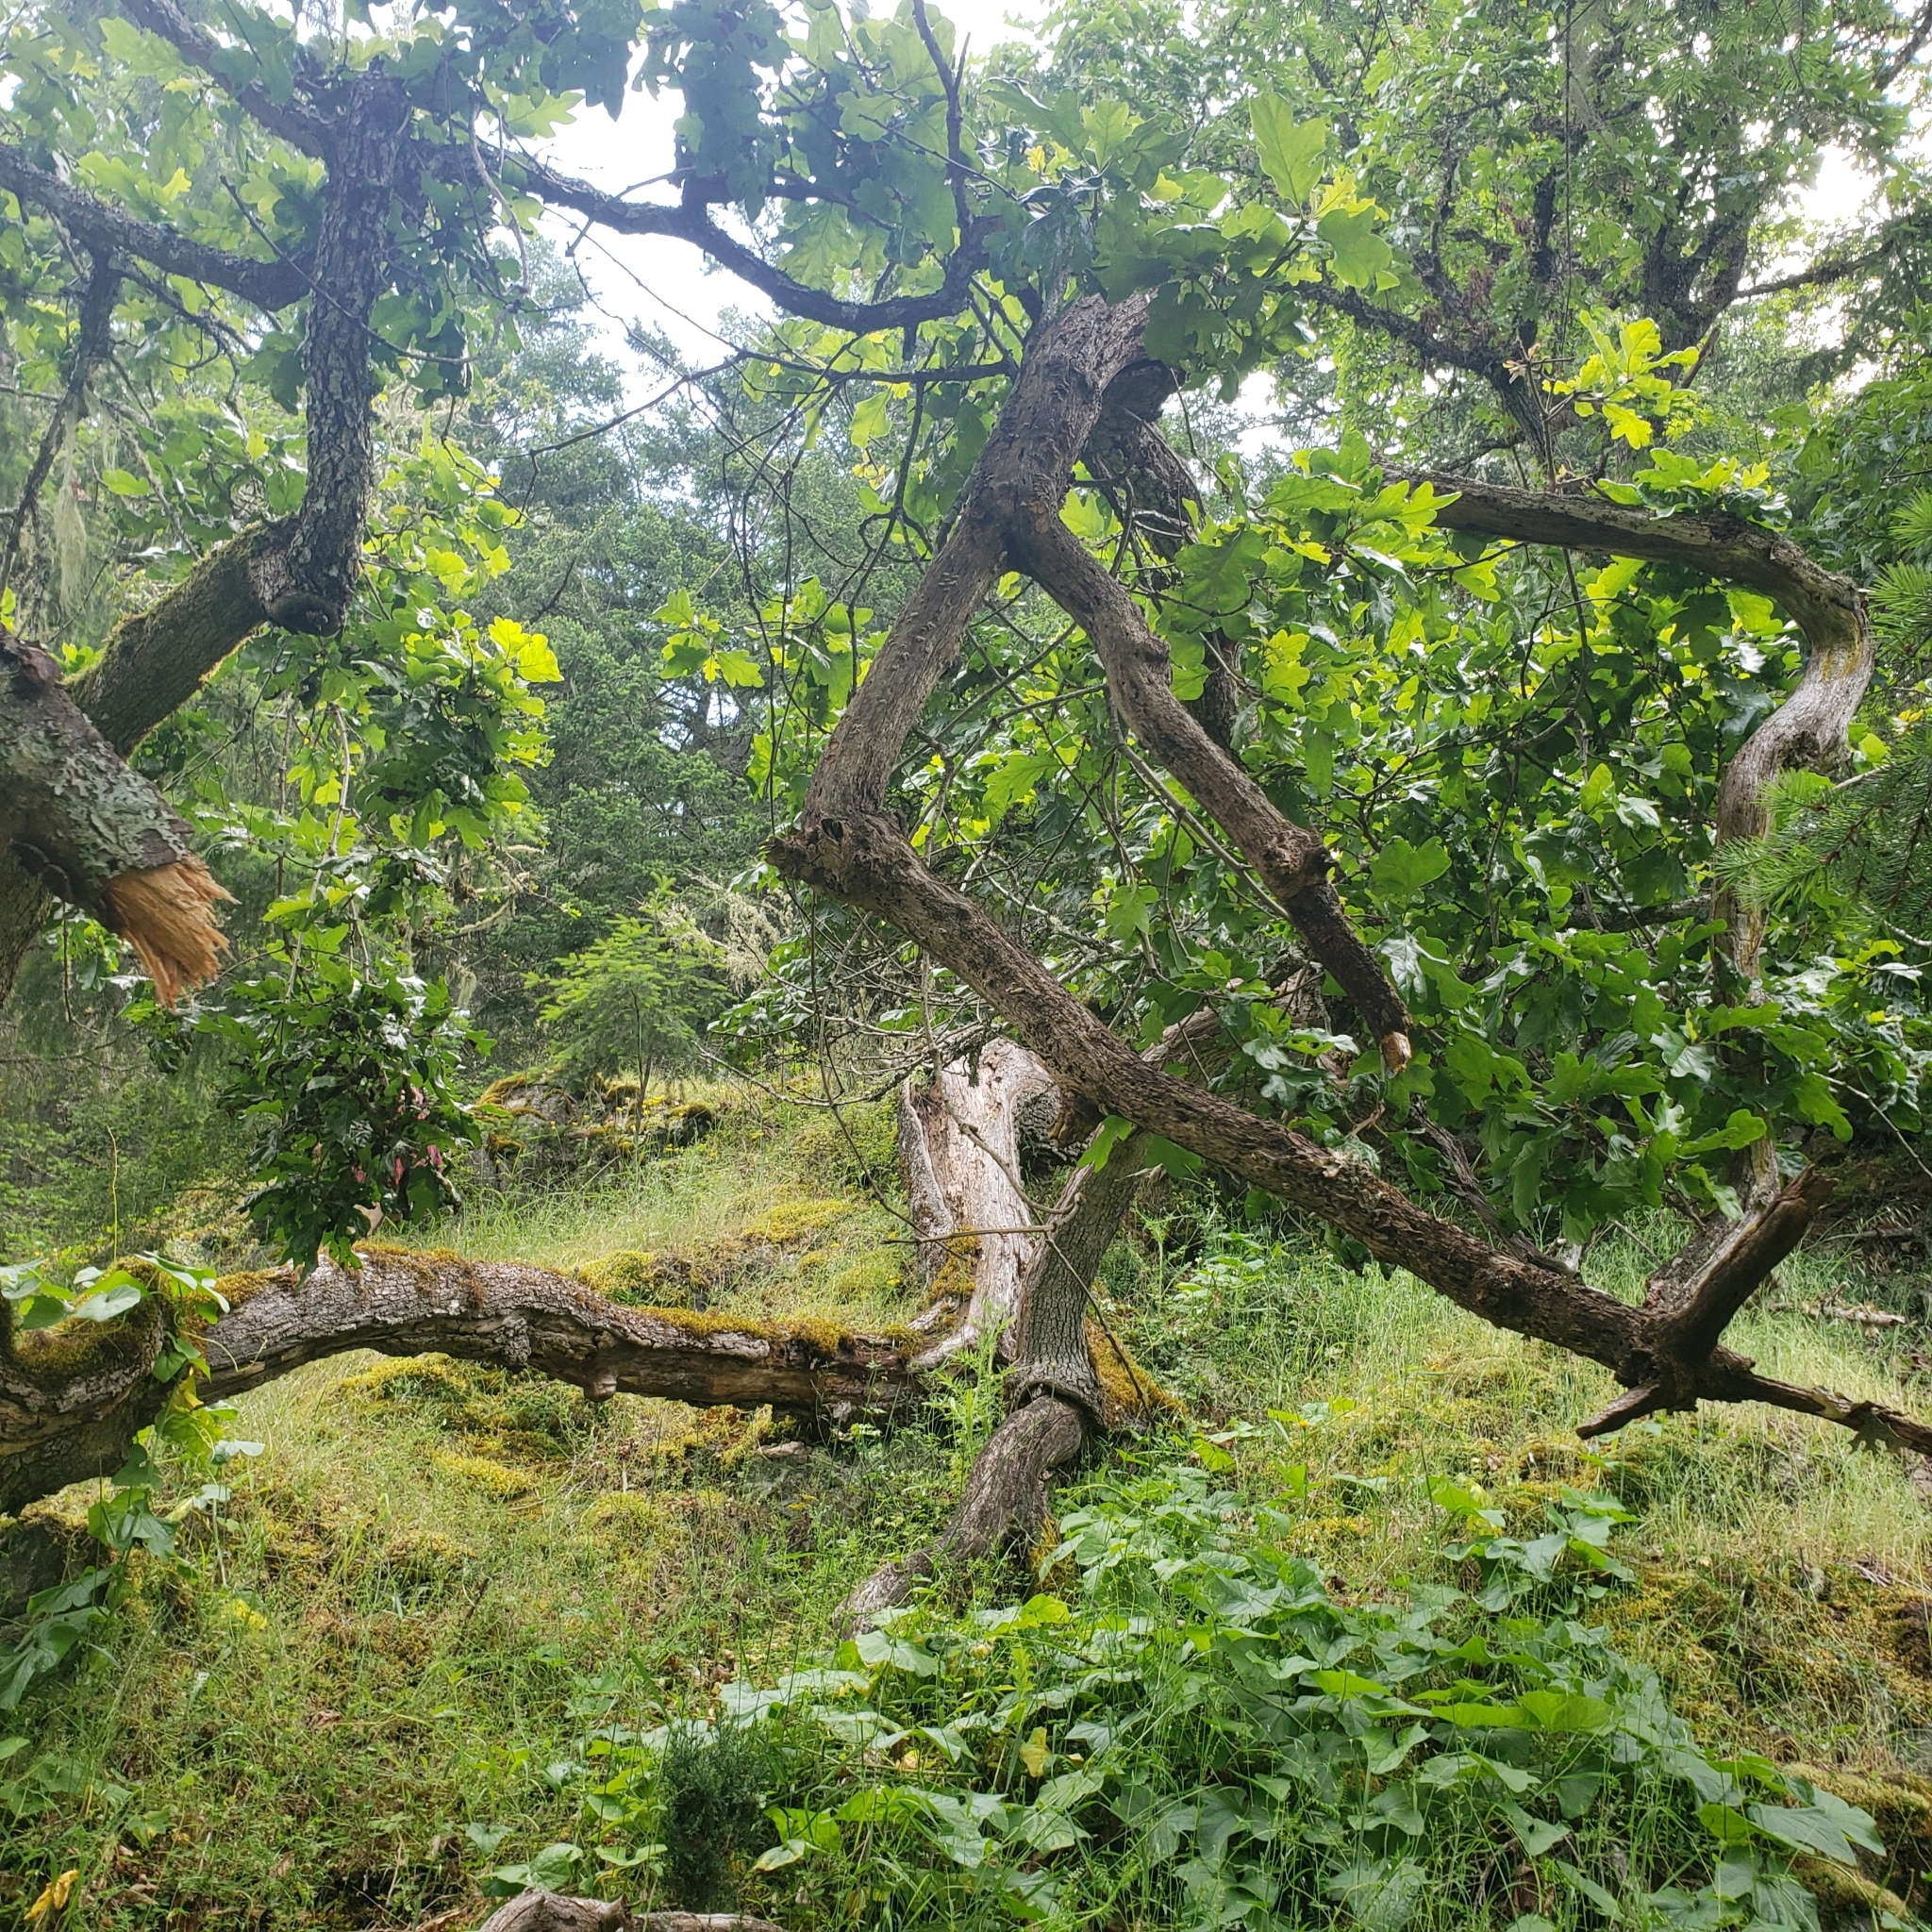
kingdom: Plantae
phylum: Tracheophyta
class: Magnoliopsida
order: Fagales
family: Fagaceae
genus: Quercus
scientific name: Quercus garryana
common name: Garry oak
